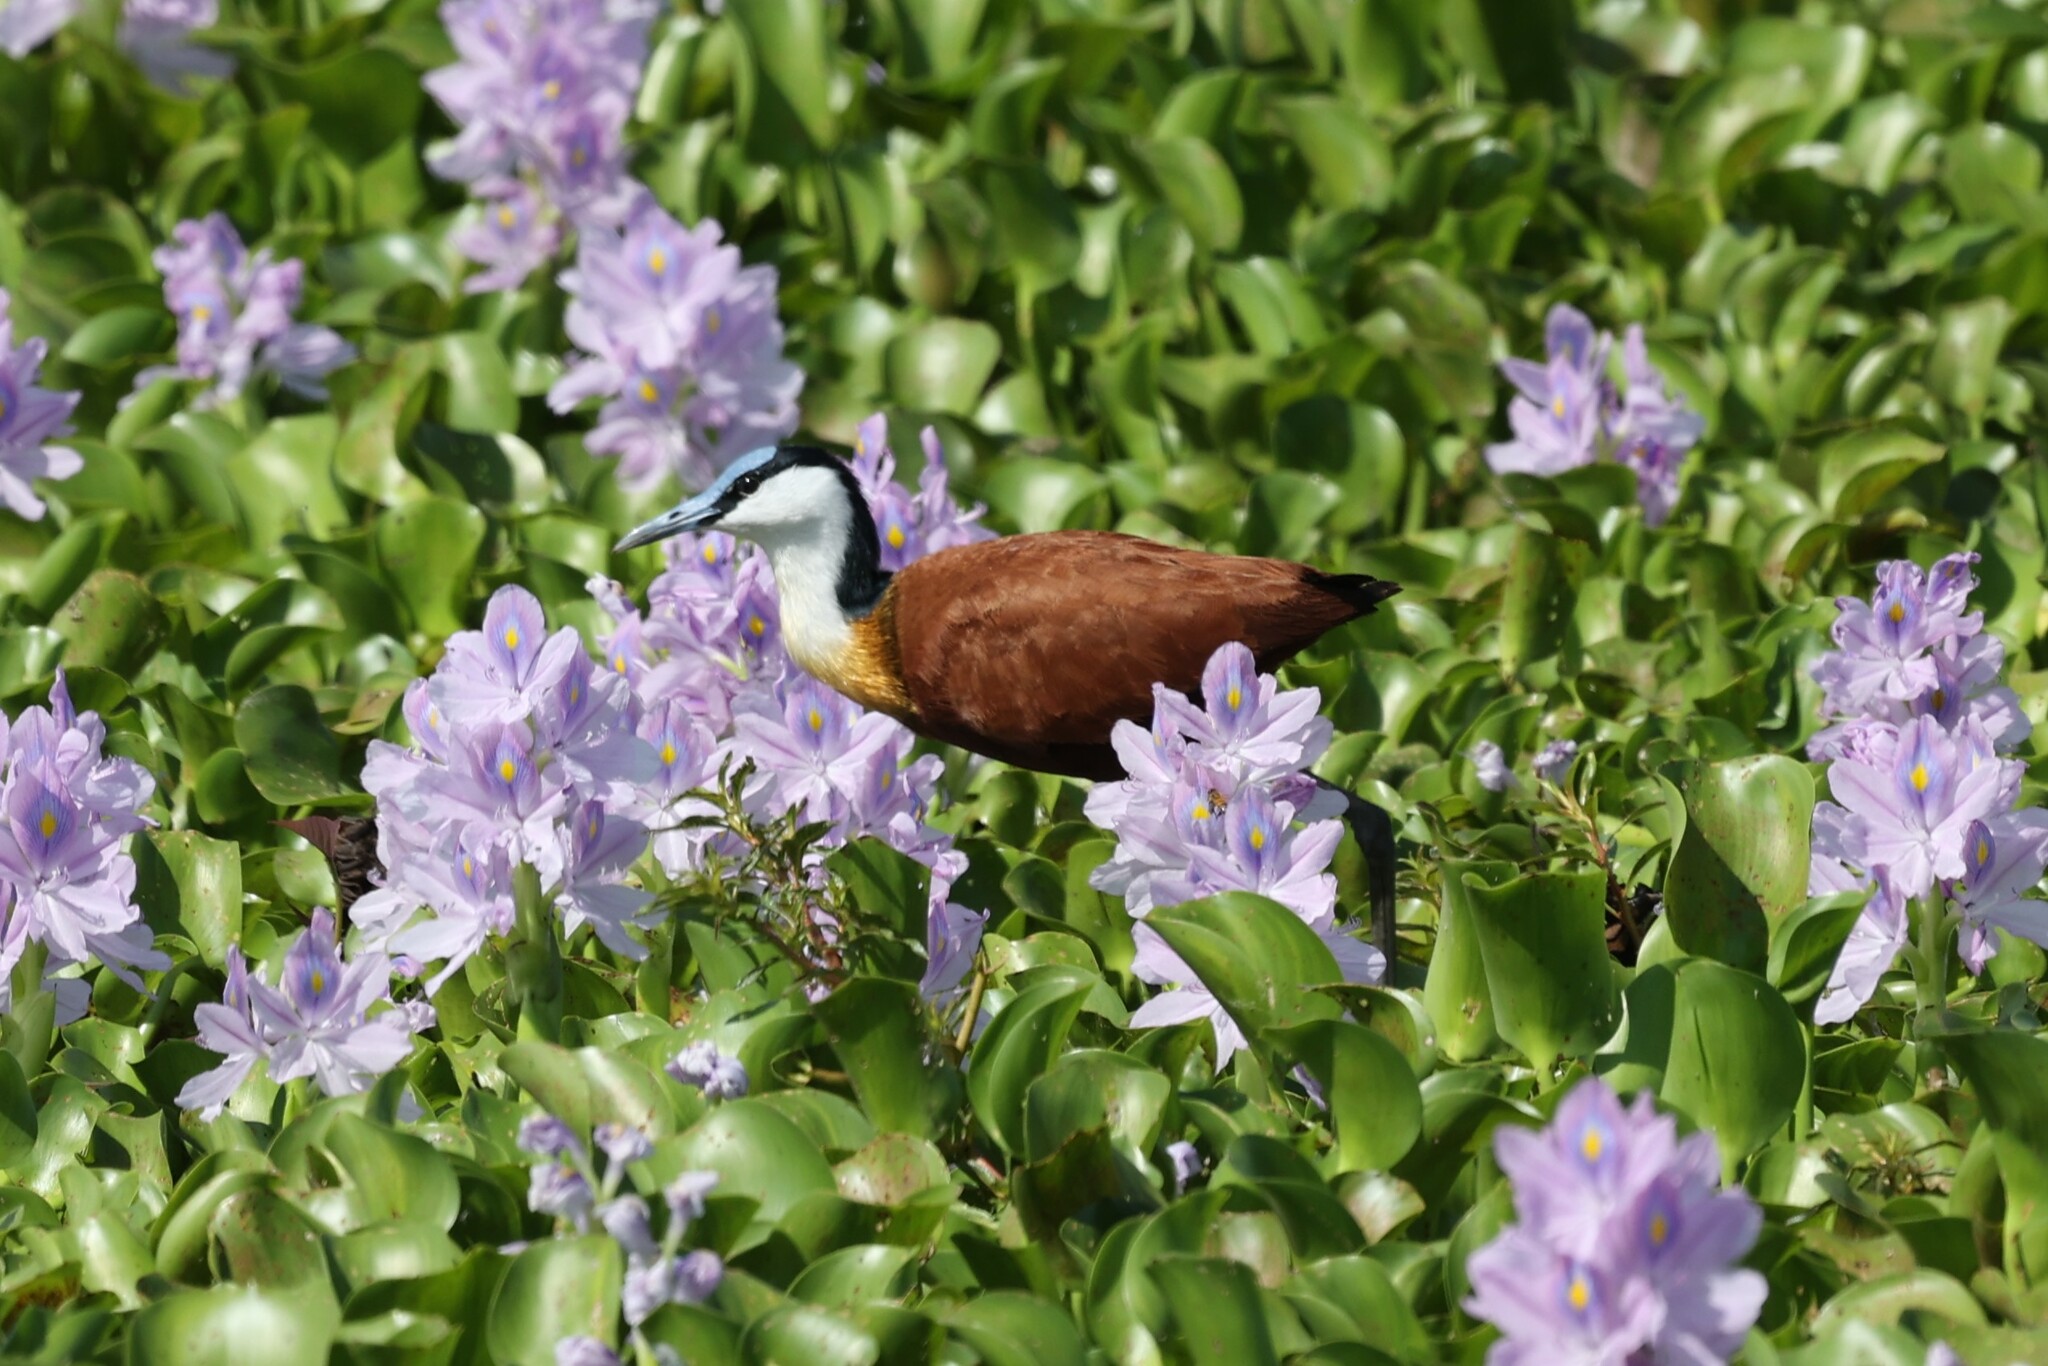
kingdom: Animalia
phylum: Chordata
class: Aves
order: Charadriiformes
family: Jacanidae
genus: Actophilornis
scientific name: Actophilornis africanus
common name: African jacana
